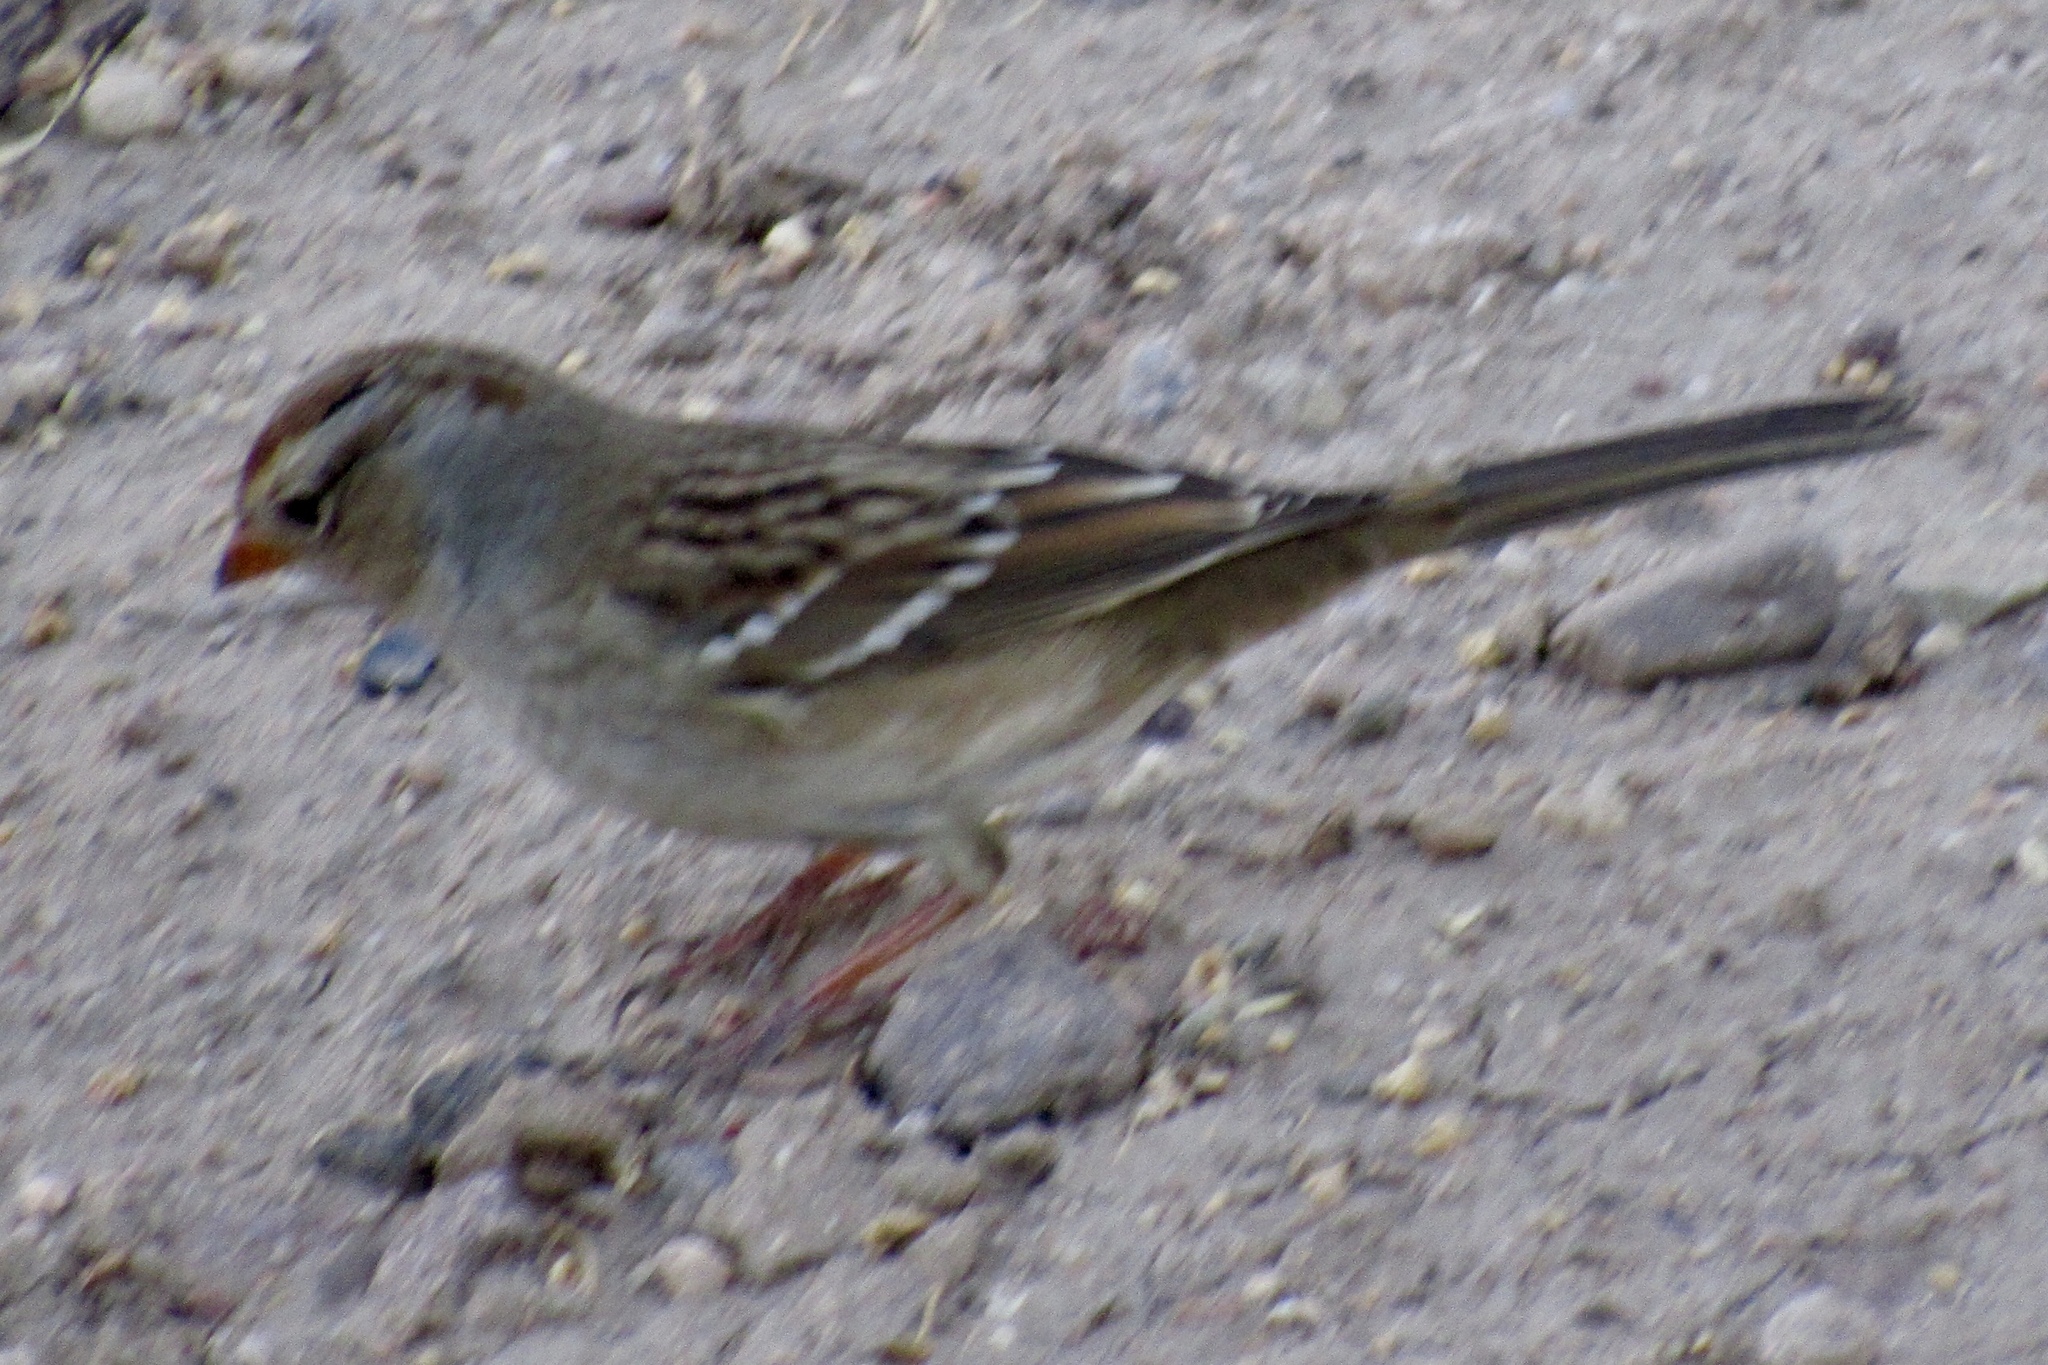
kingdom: Animalia
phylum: Chordata
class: Aves
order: Passeriformes
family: Passerellidae
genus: Zonotrichia
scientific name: Zonotrichia leucophrys
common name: White-crowned sparrow
